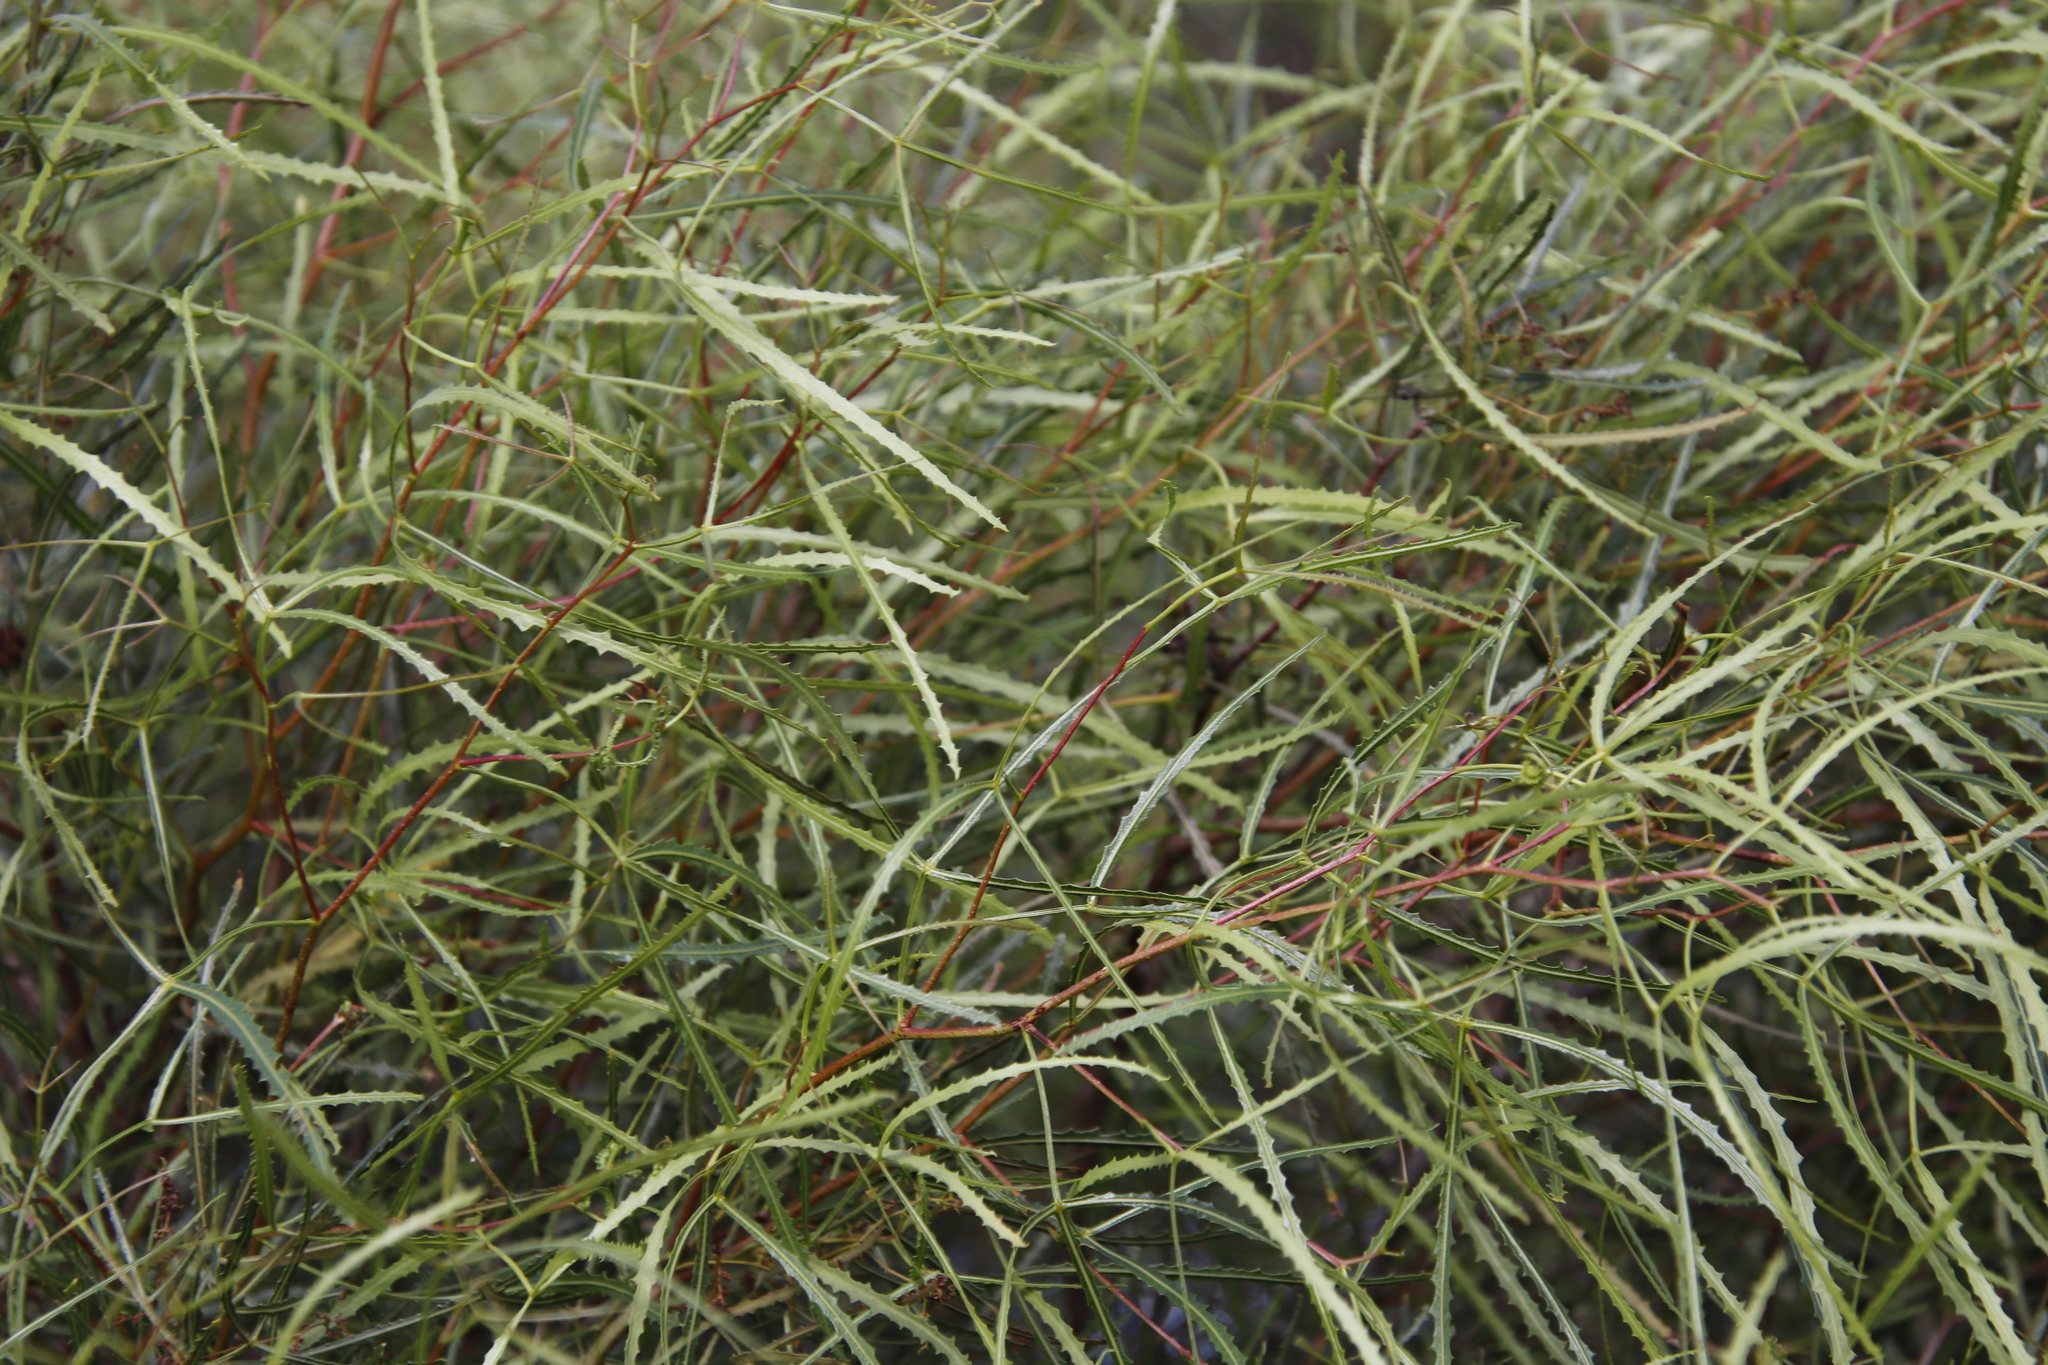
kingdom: Plantae
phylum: Tracheophyta
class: Magnoliopsida
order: Sapindales
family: Anacardiaceae
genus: Searsia
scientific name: Searsia erosa
